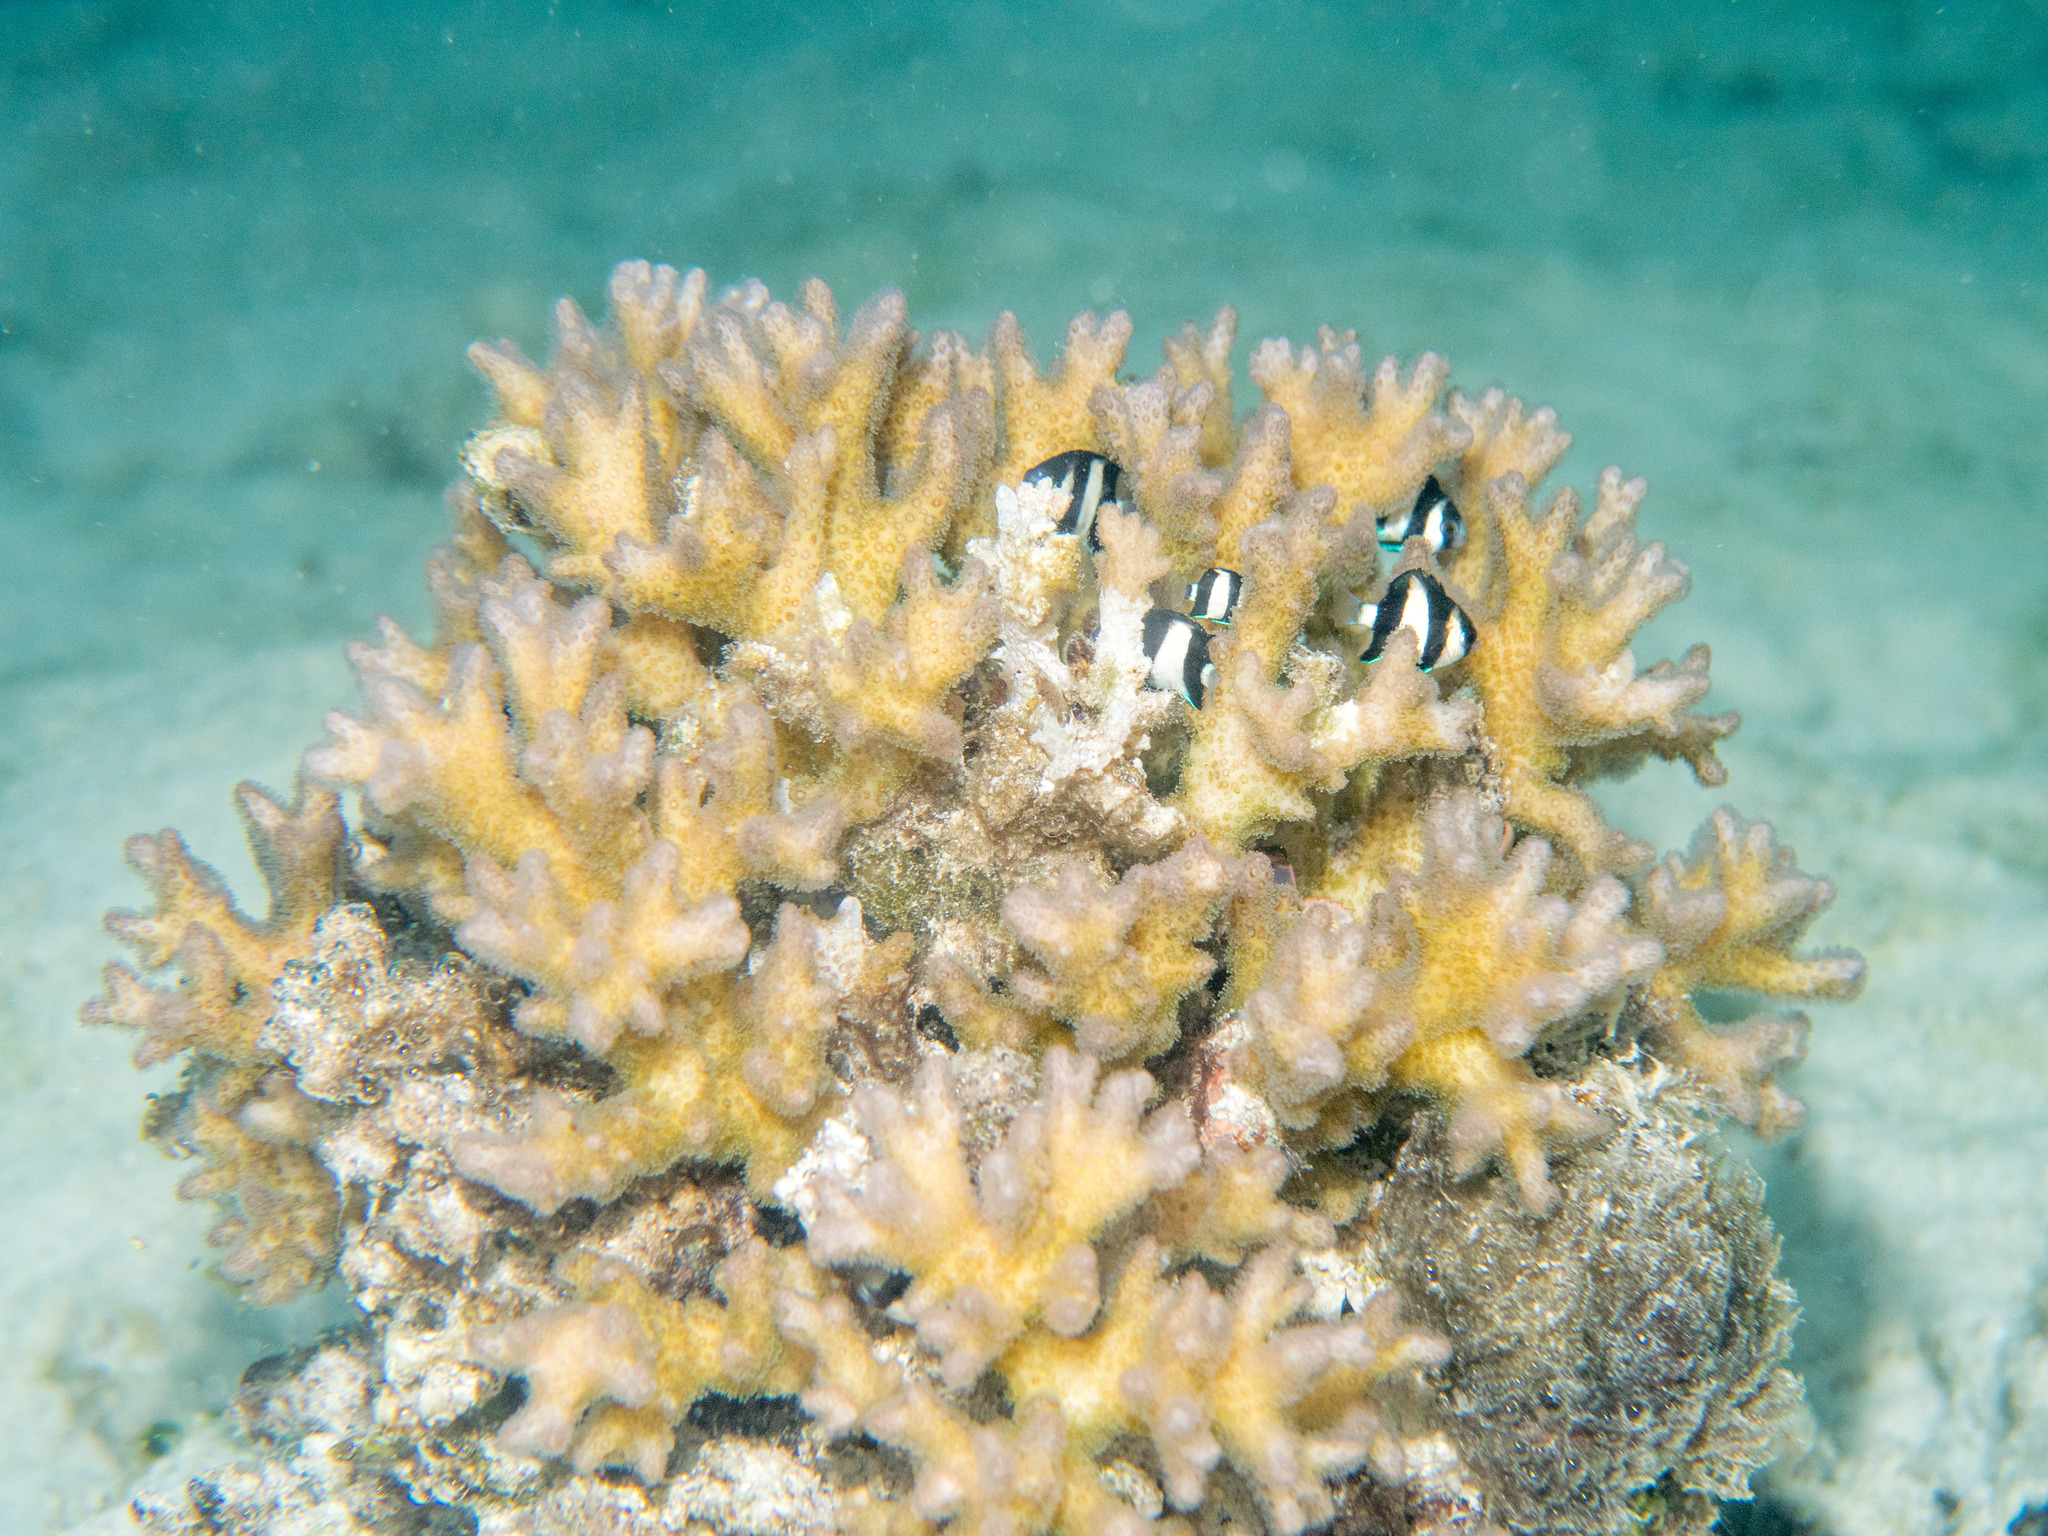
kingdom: Animalia
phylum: Cnidaria
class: Anthozoa
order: Scleractinia
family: Pocilloporidae
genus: Pocillopora
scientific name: Pocillopora damicornis
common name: Cauliflower coral
